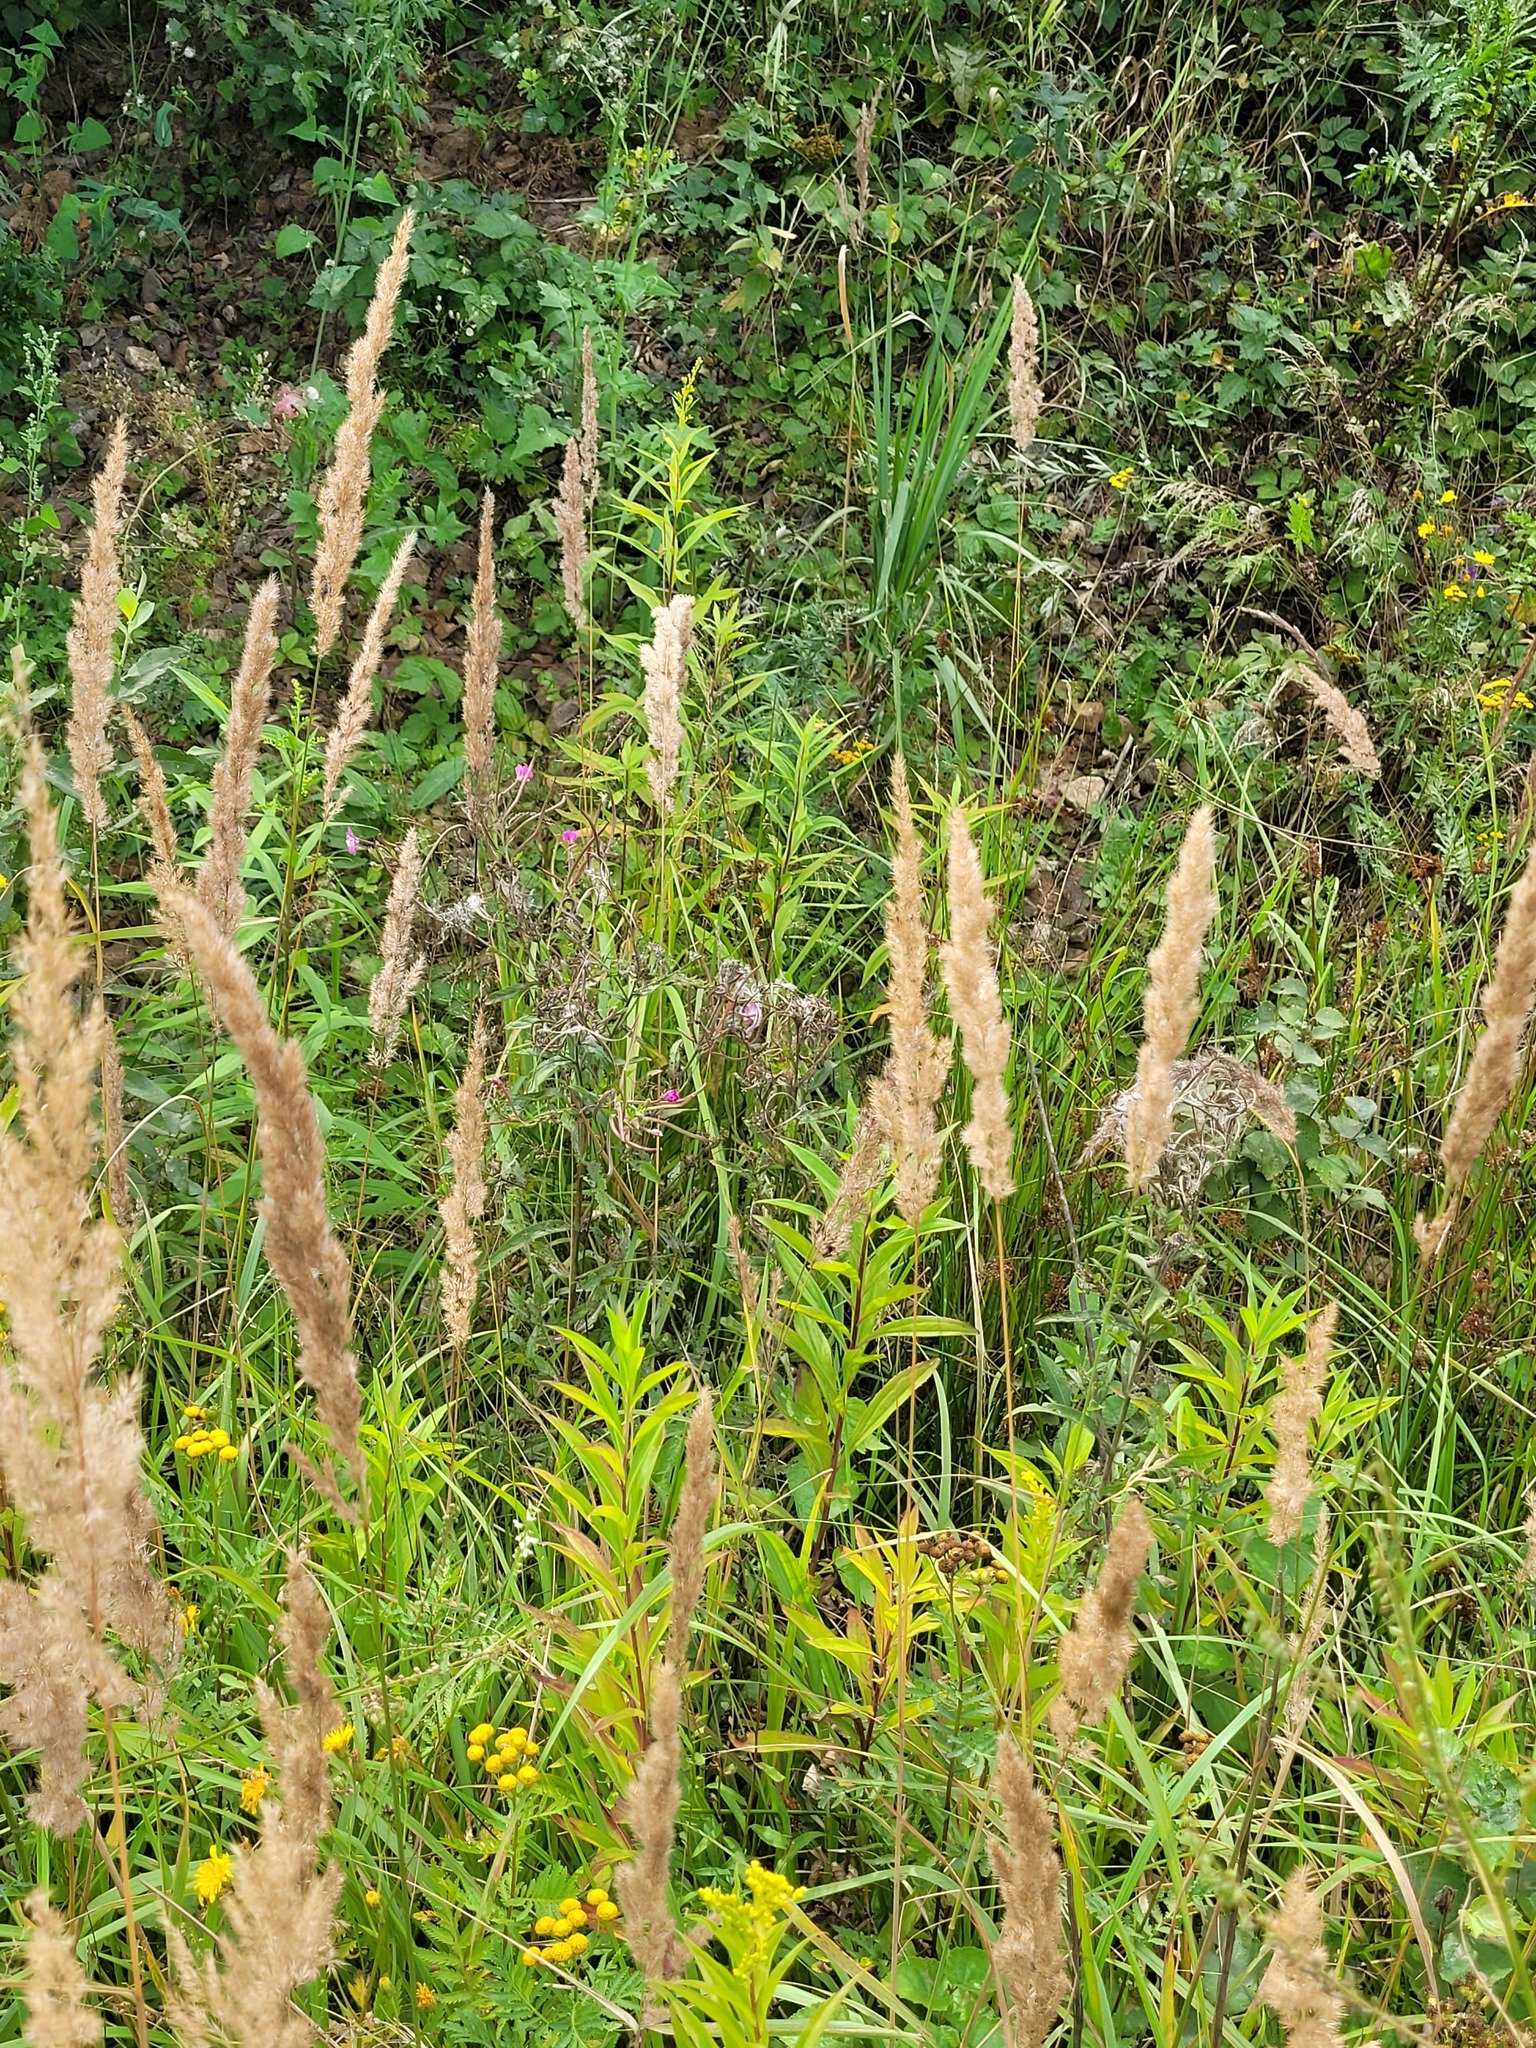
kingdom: Plantae
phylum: Tracheophyta
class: Magnoliopsida
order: Myrtales
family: Onagraceae
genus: Epilobium
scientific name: Epilobium hirsutum
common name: Great willowherb
